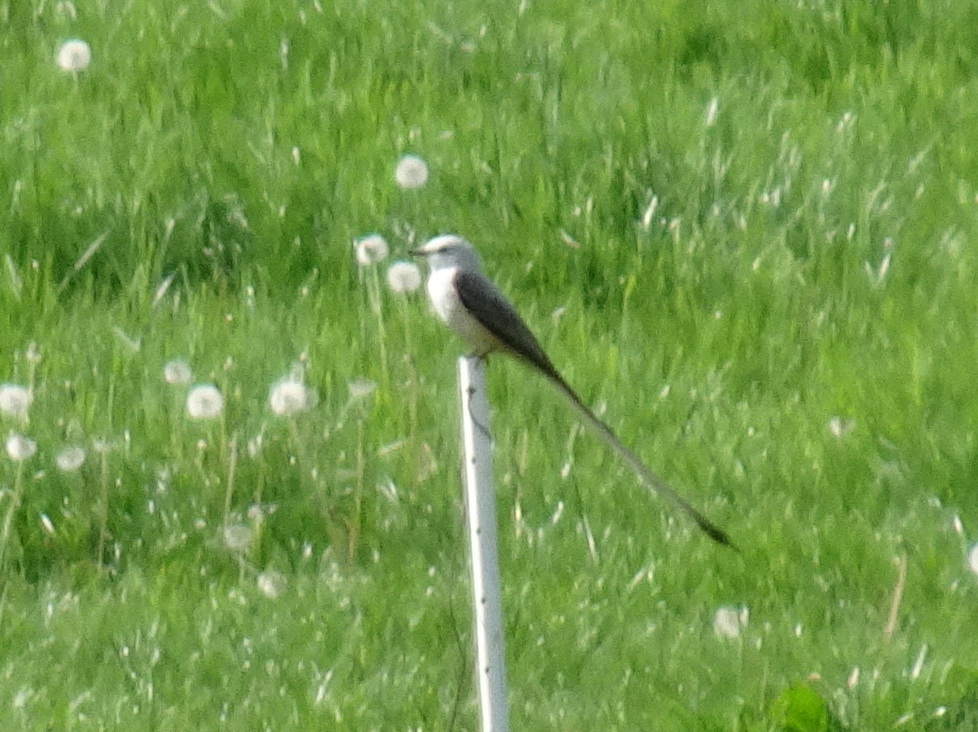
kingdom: Animalia
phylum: Chordata
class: Aves
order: Passeriformes
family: Tyrannidae
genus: Tyrannus
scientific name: Tyrannus forficatus
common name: Scissor-tailed flycatcher
